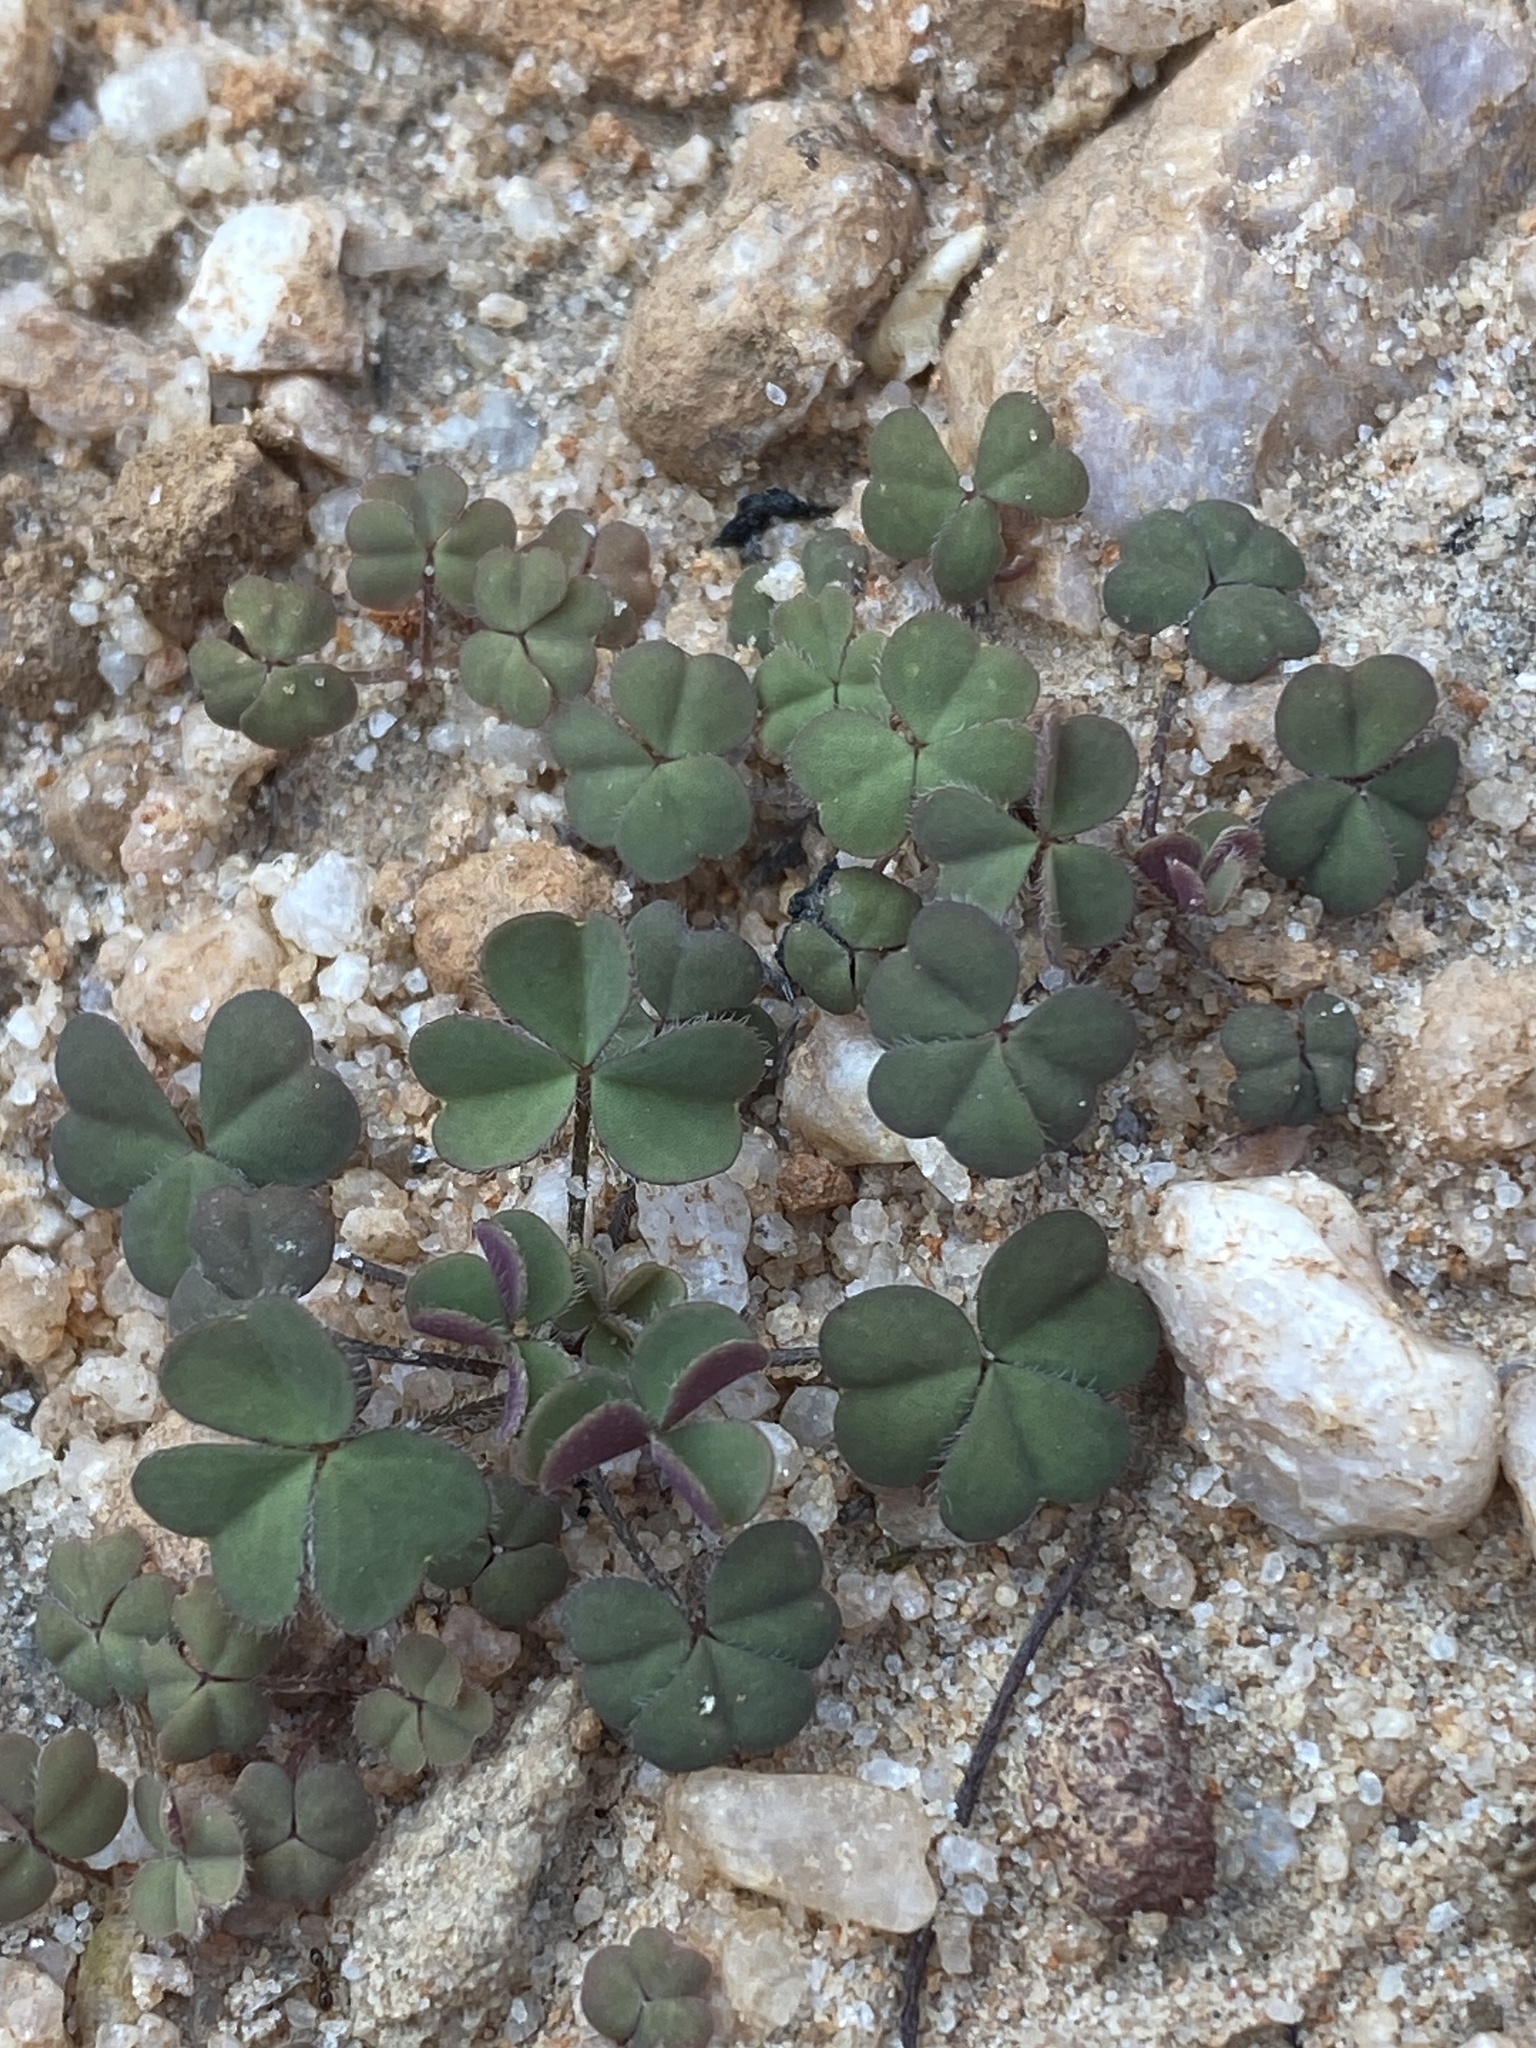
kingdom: Plantae
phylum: Tracheophyta
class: Magnoliopsida
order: Oxalidales
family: Oxalidaceae
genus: Oxalis
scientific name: Oxalis obtusa
